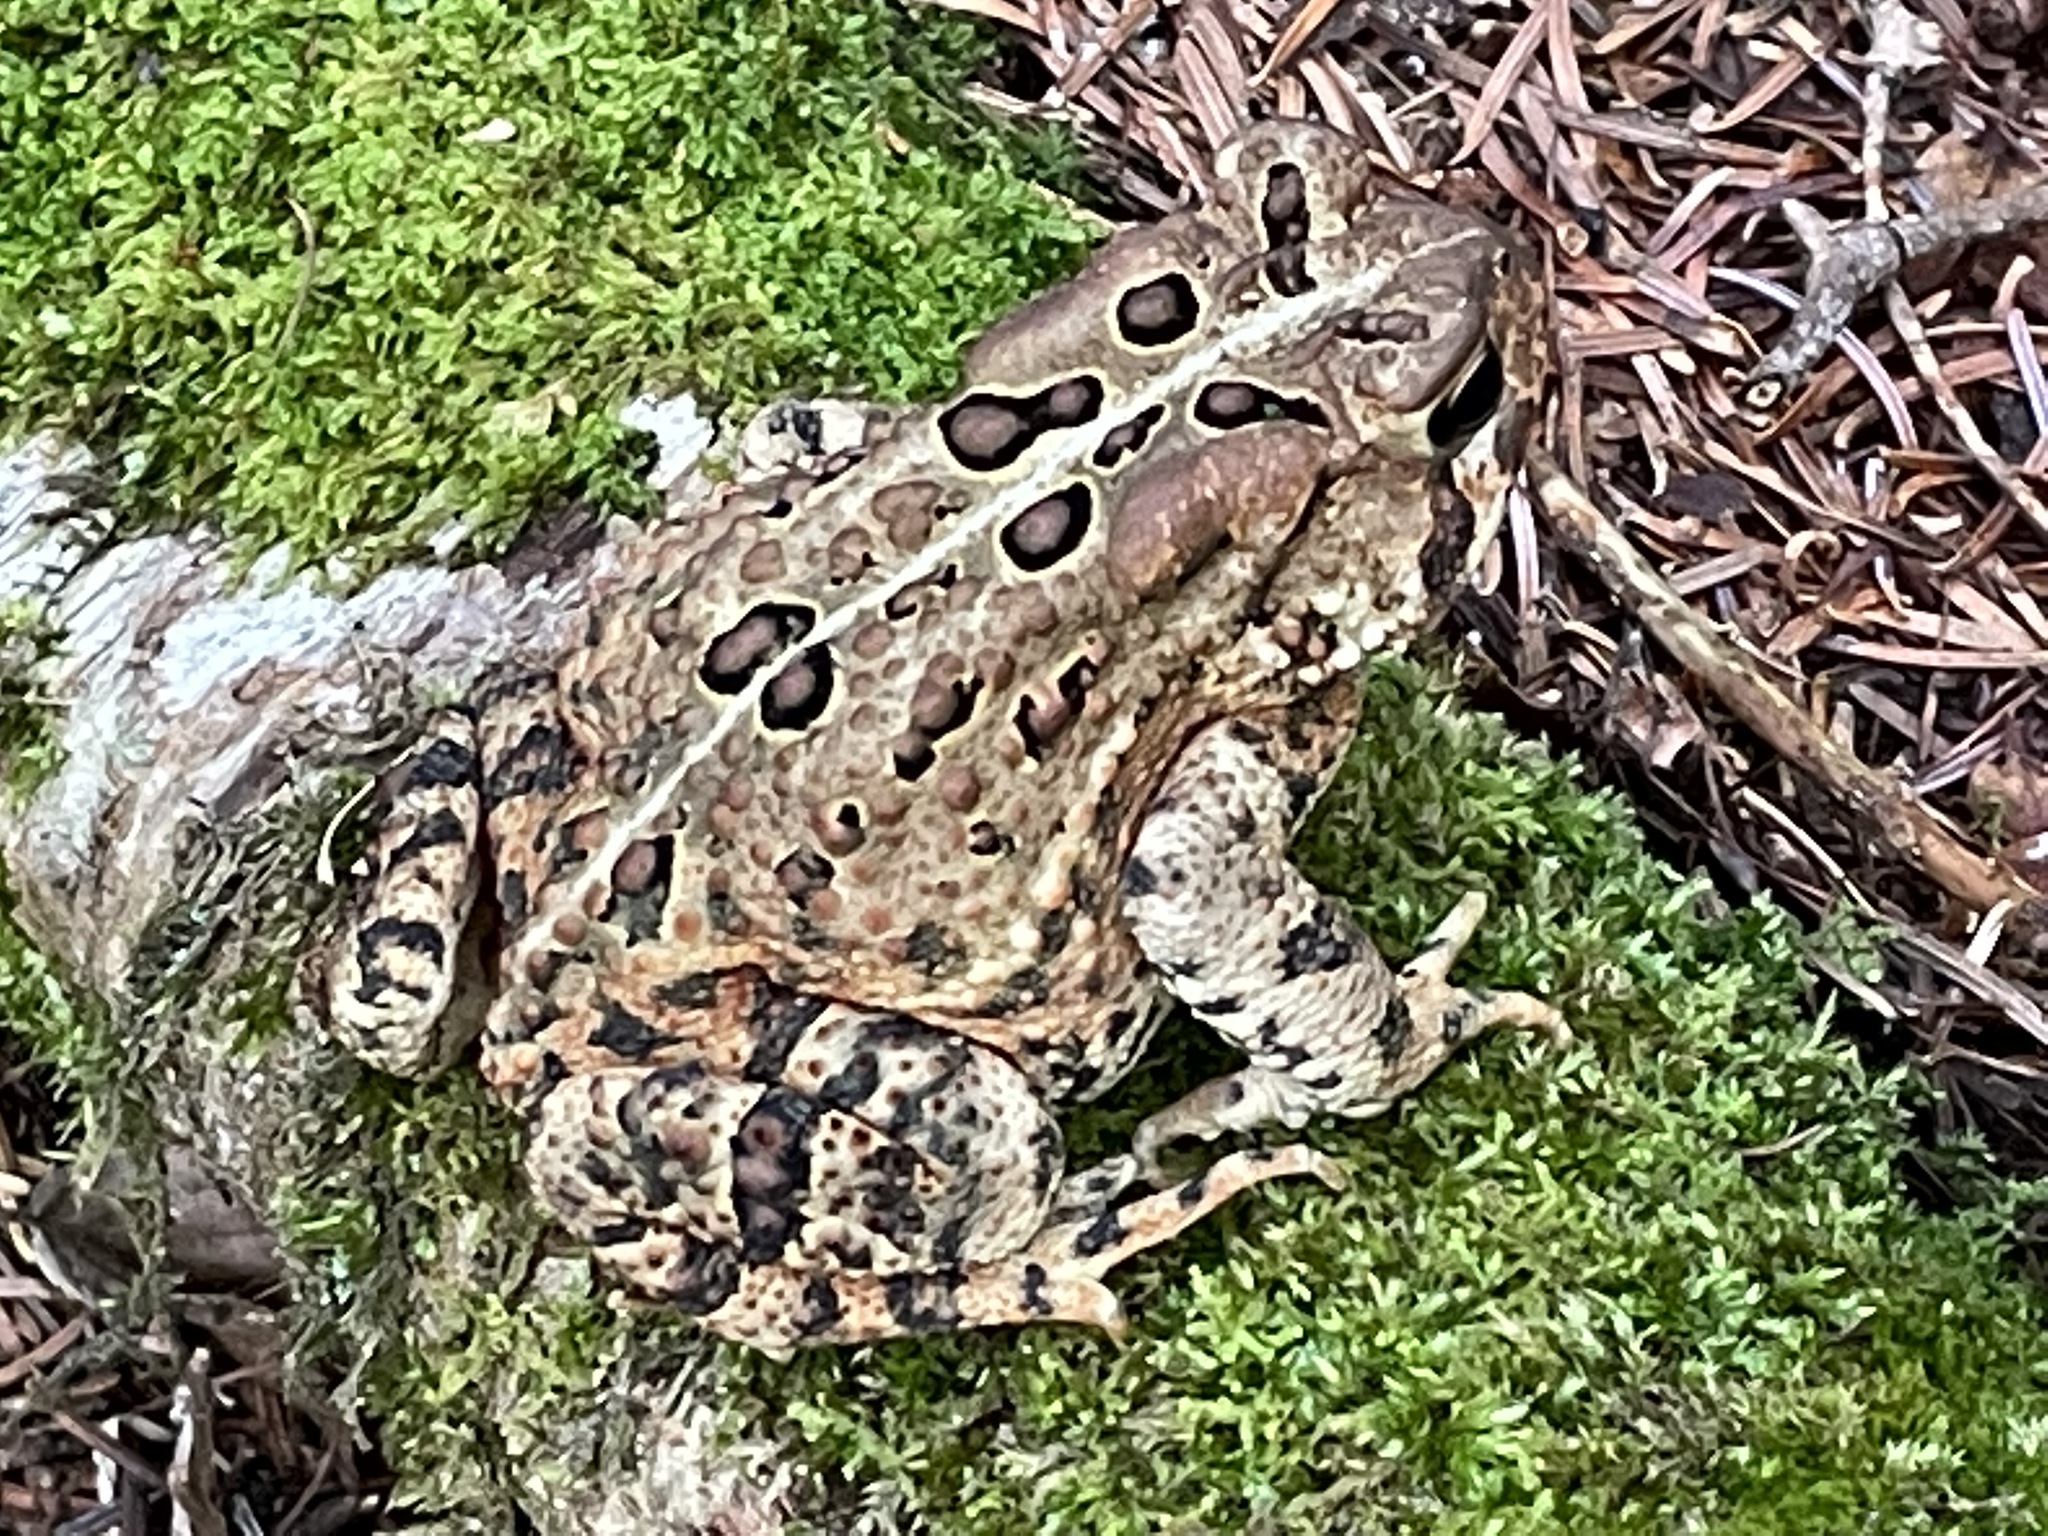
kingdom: Animalia
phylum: Chordata
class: Amphibia
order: Anura
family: Bufonidae
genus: Anaxyrus
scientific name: Anaxyrus americanus
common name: American toad
